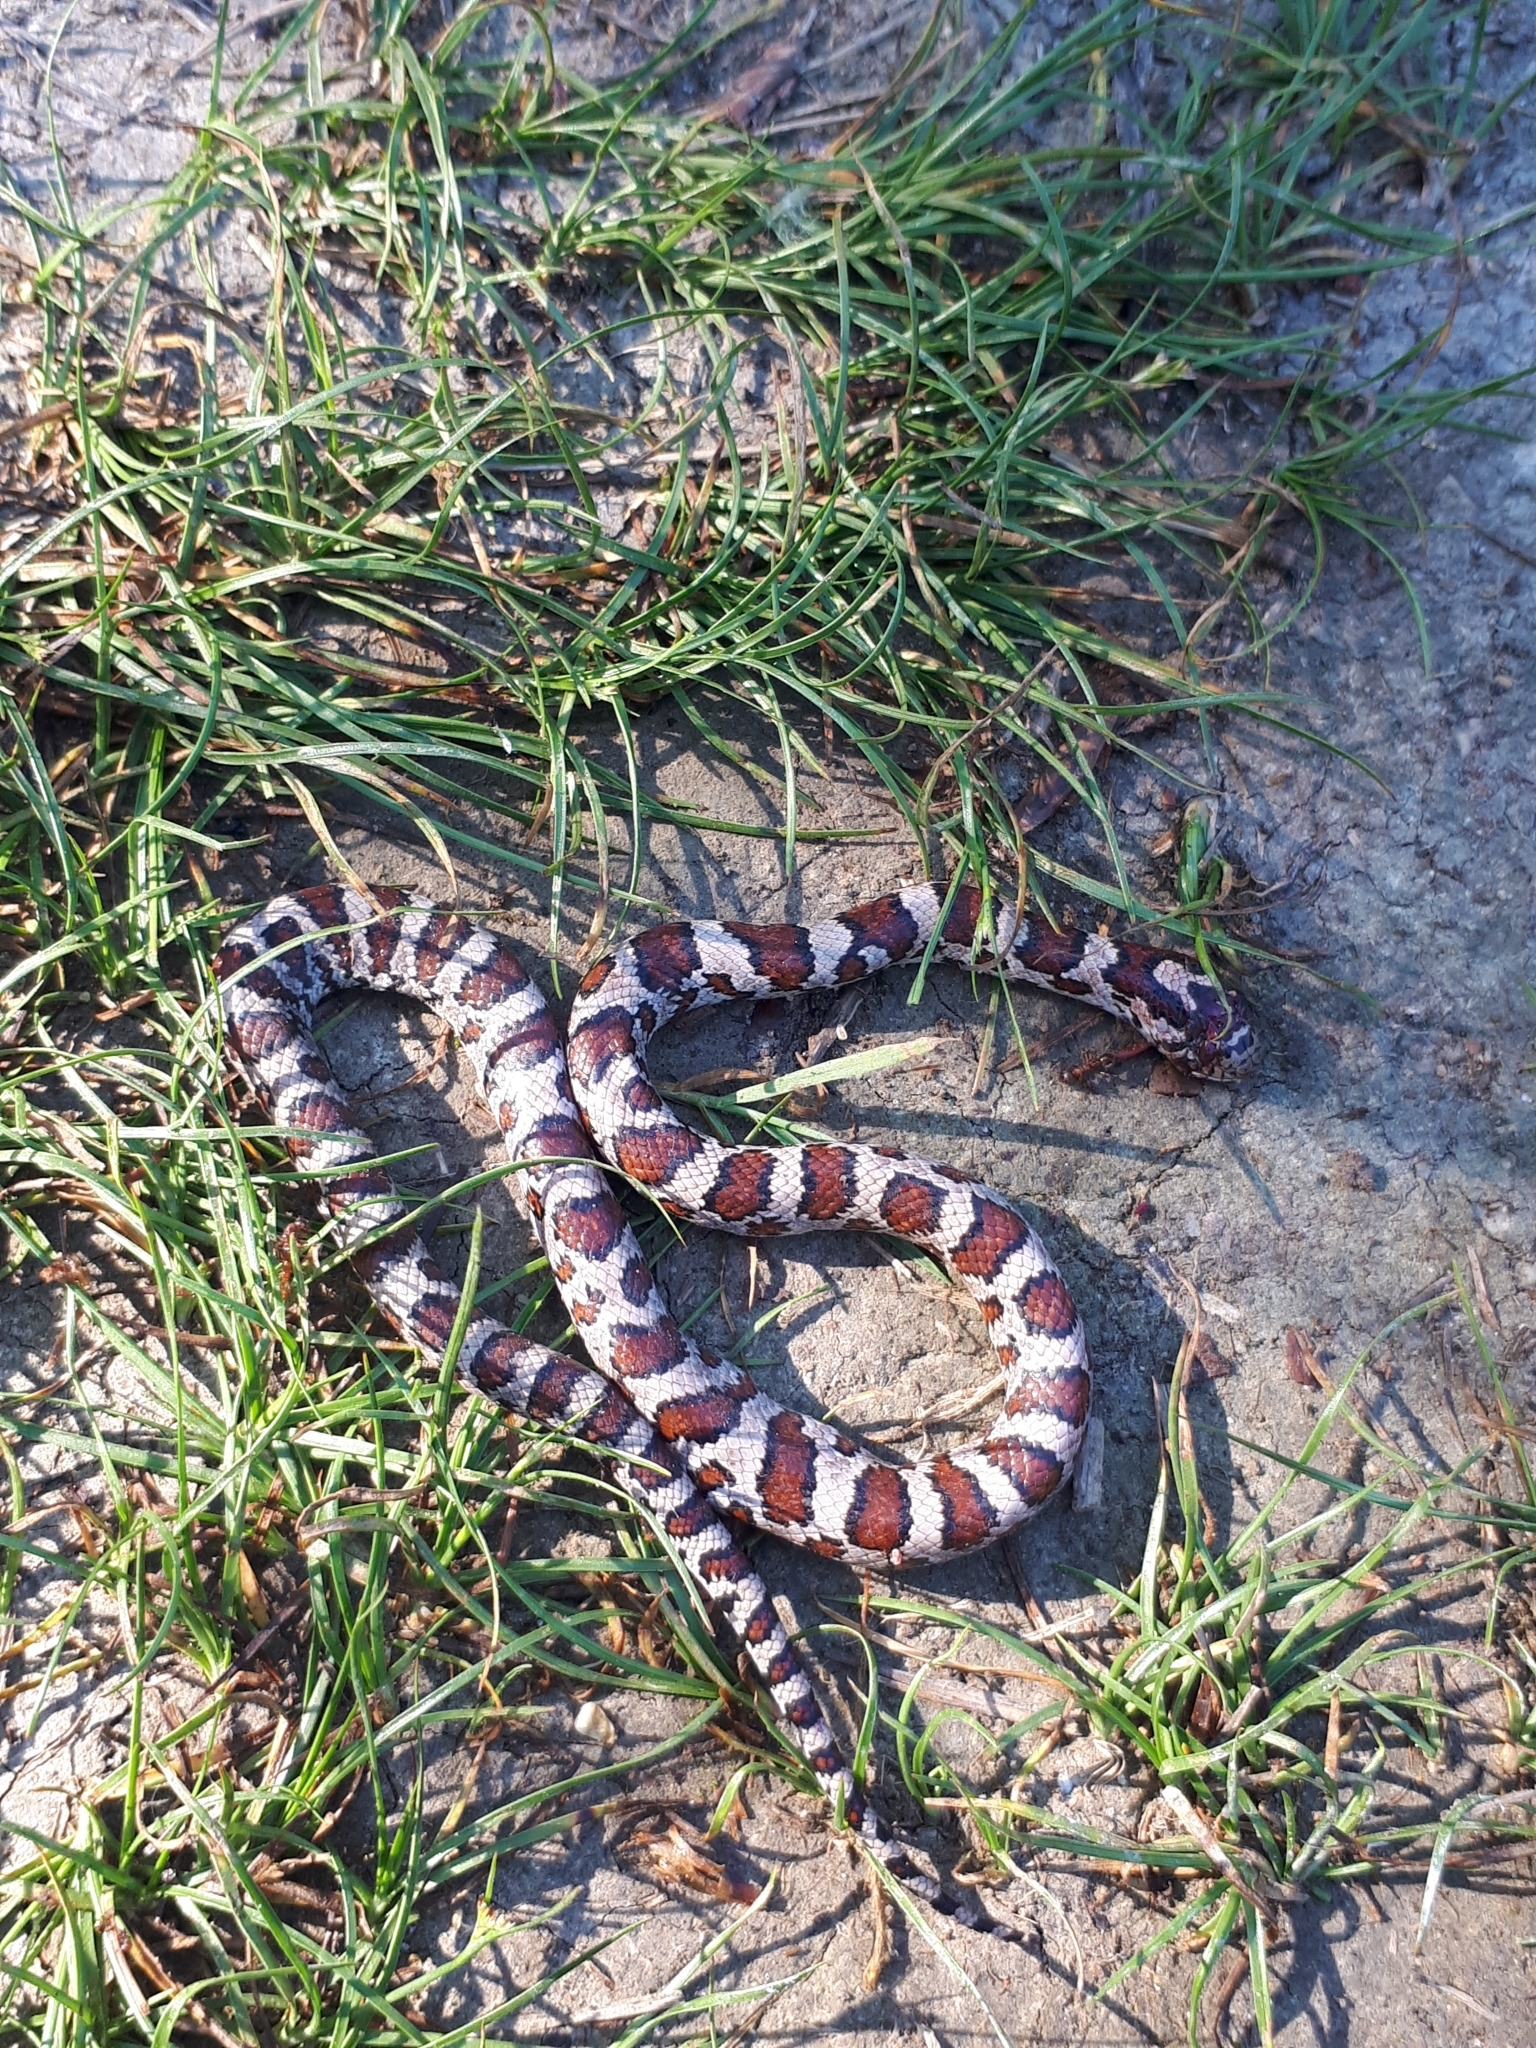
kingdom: Animalia
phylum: Chordata
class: Squamata
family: Colubridae
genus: Lampropeltis
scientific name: Lampropeltis triangulum
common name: Eastern milksnake
